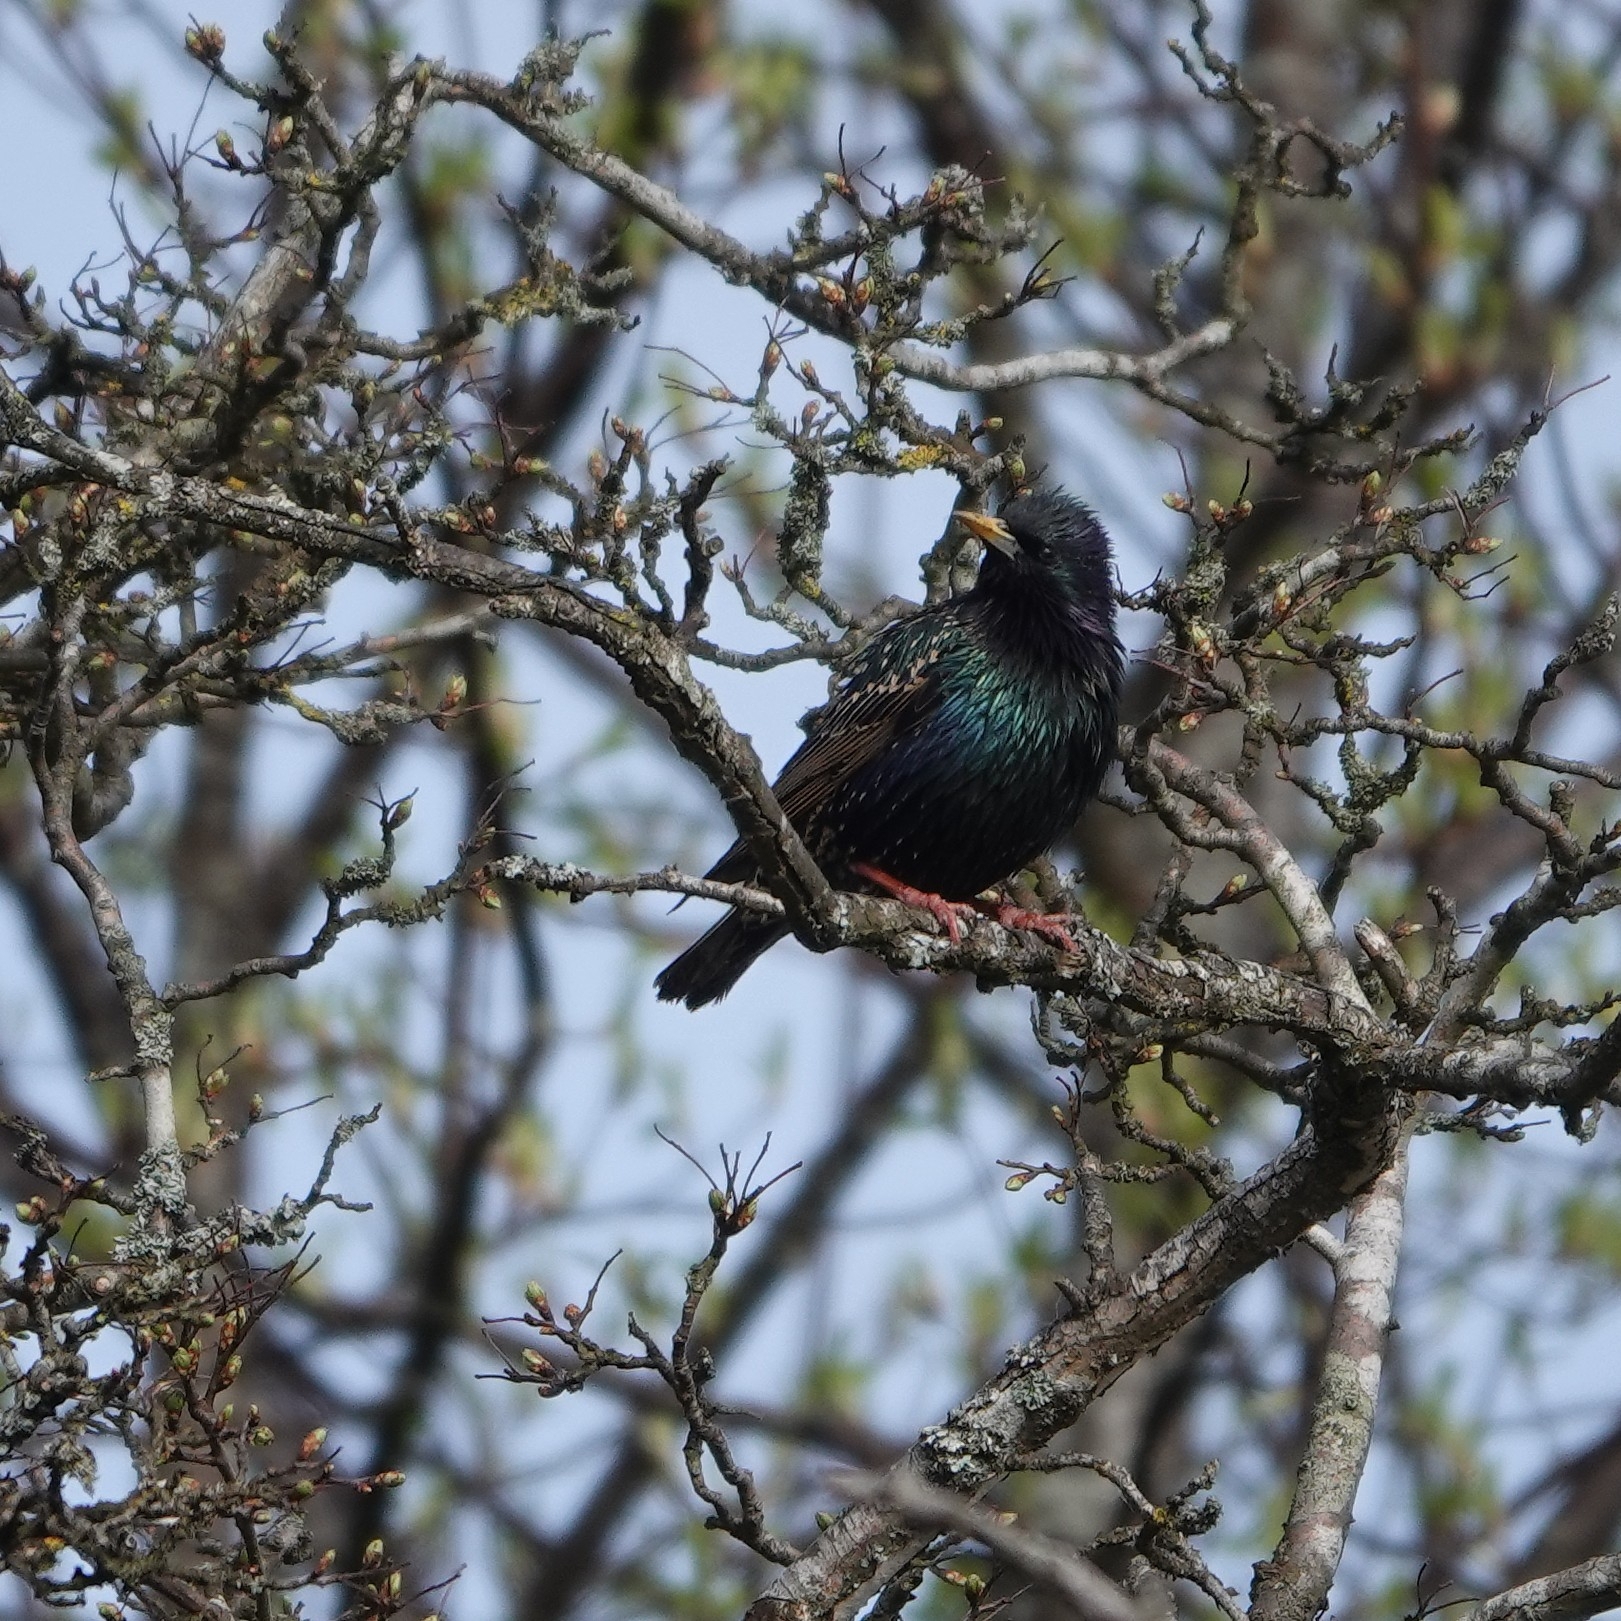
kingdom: Animalia
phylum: Chordata
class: Aves
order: Passeriformes
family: Sturnidae
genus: Sturnus
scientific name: Sturnus vulgaris
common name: Common starling
